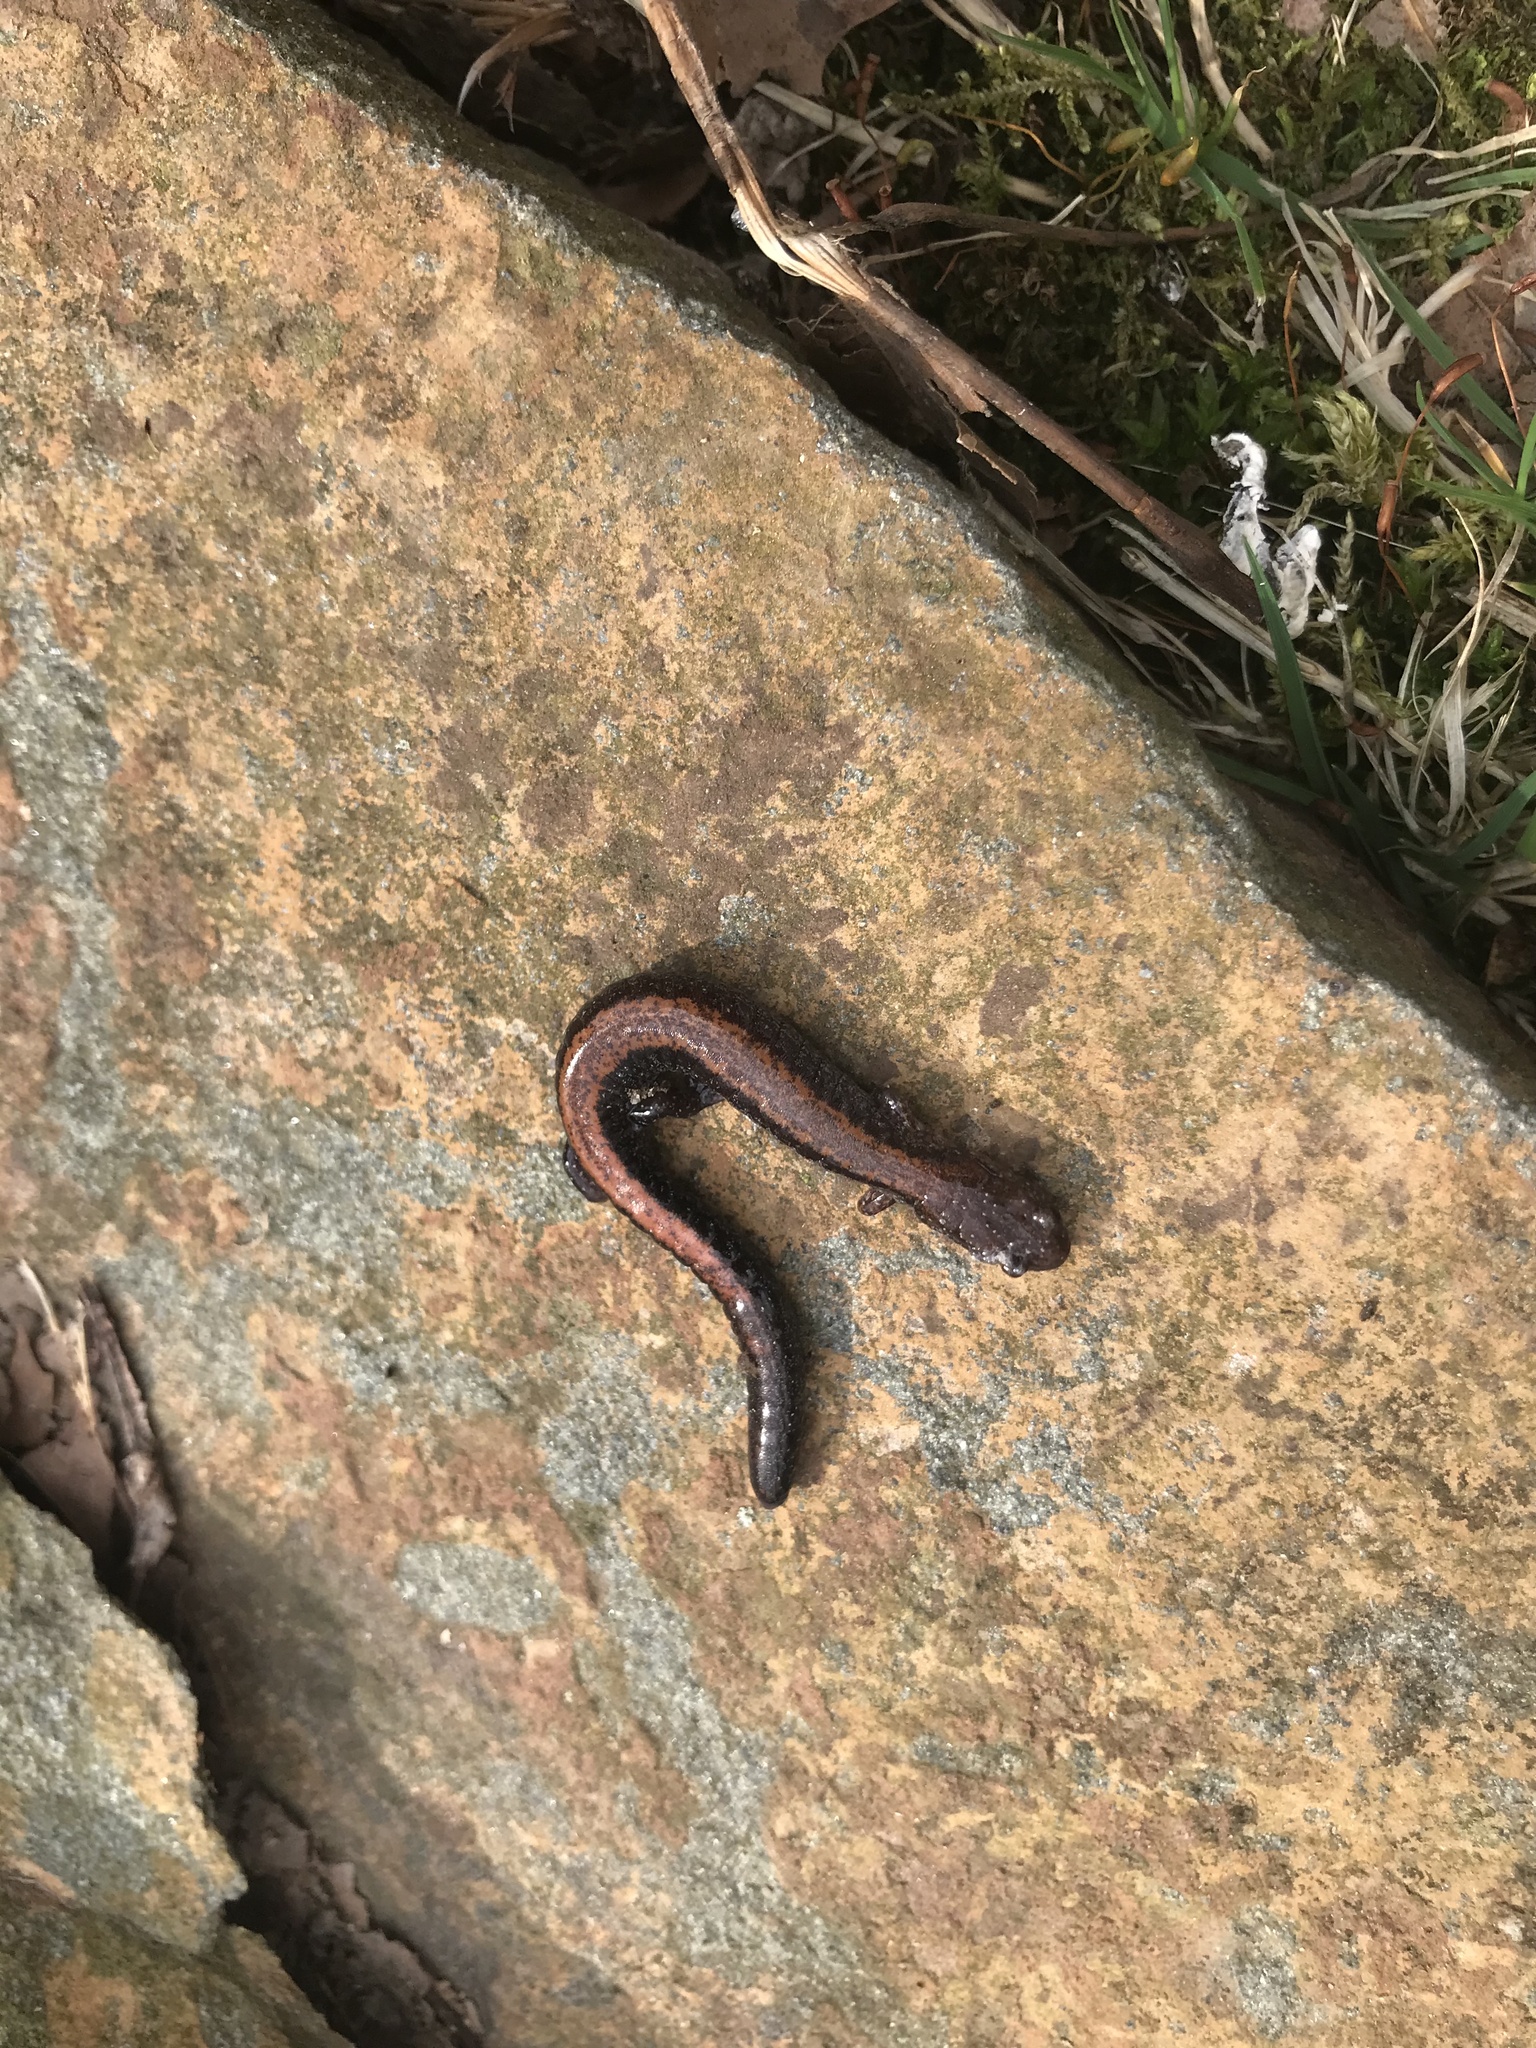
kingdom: Animalia
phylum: Chordata
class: Amphibia
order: Caudata
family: Plethodontidae
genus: Plethodon
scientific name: Plethodon cinereus
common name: Redback salamander
